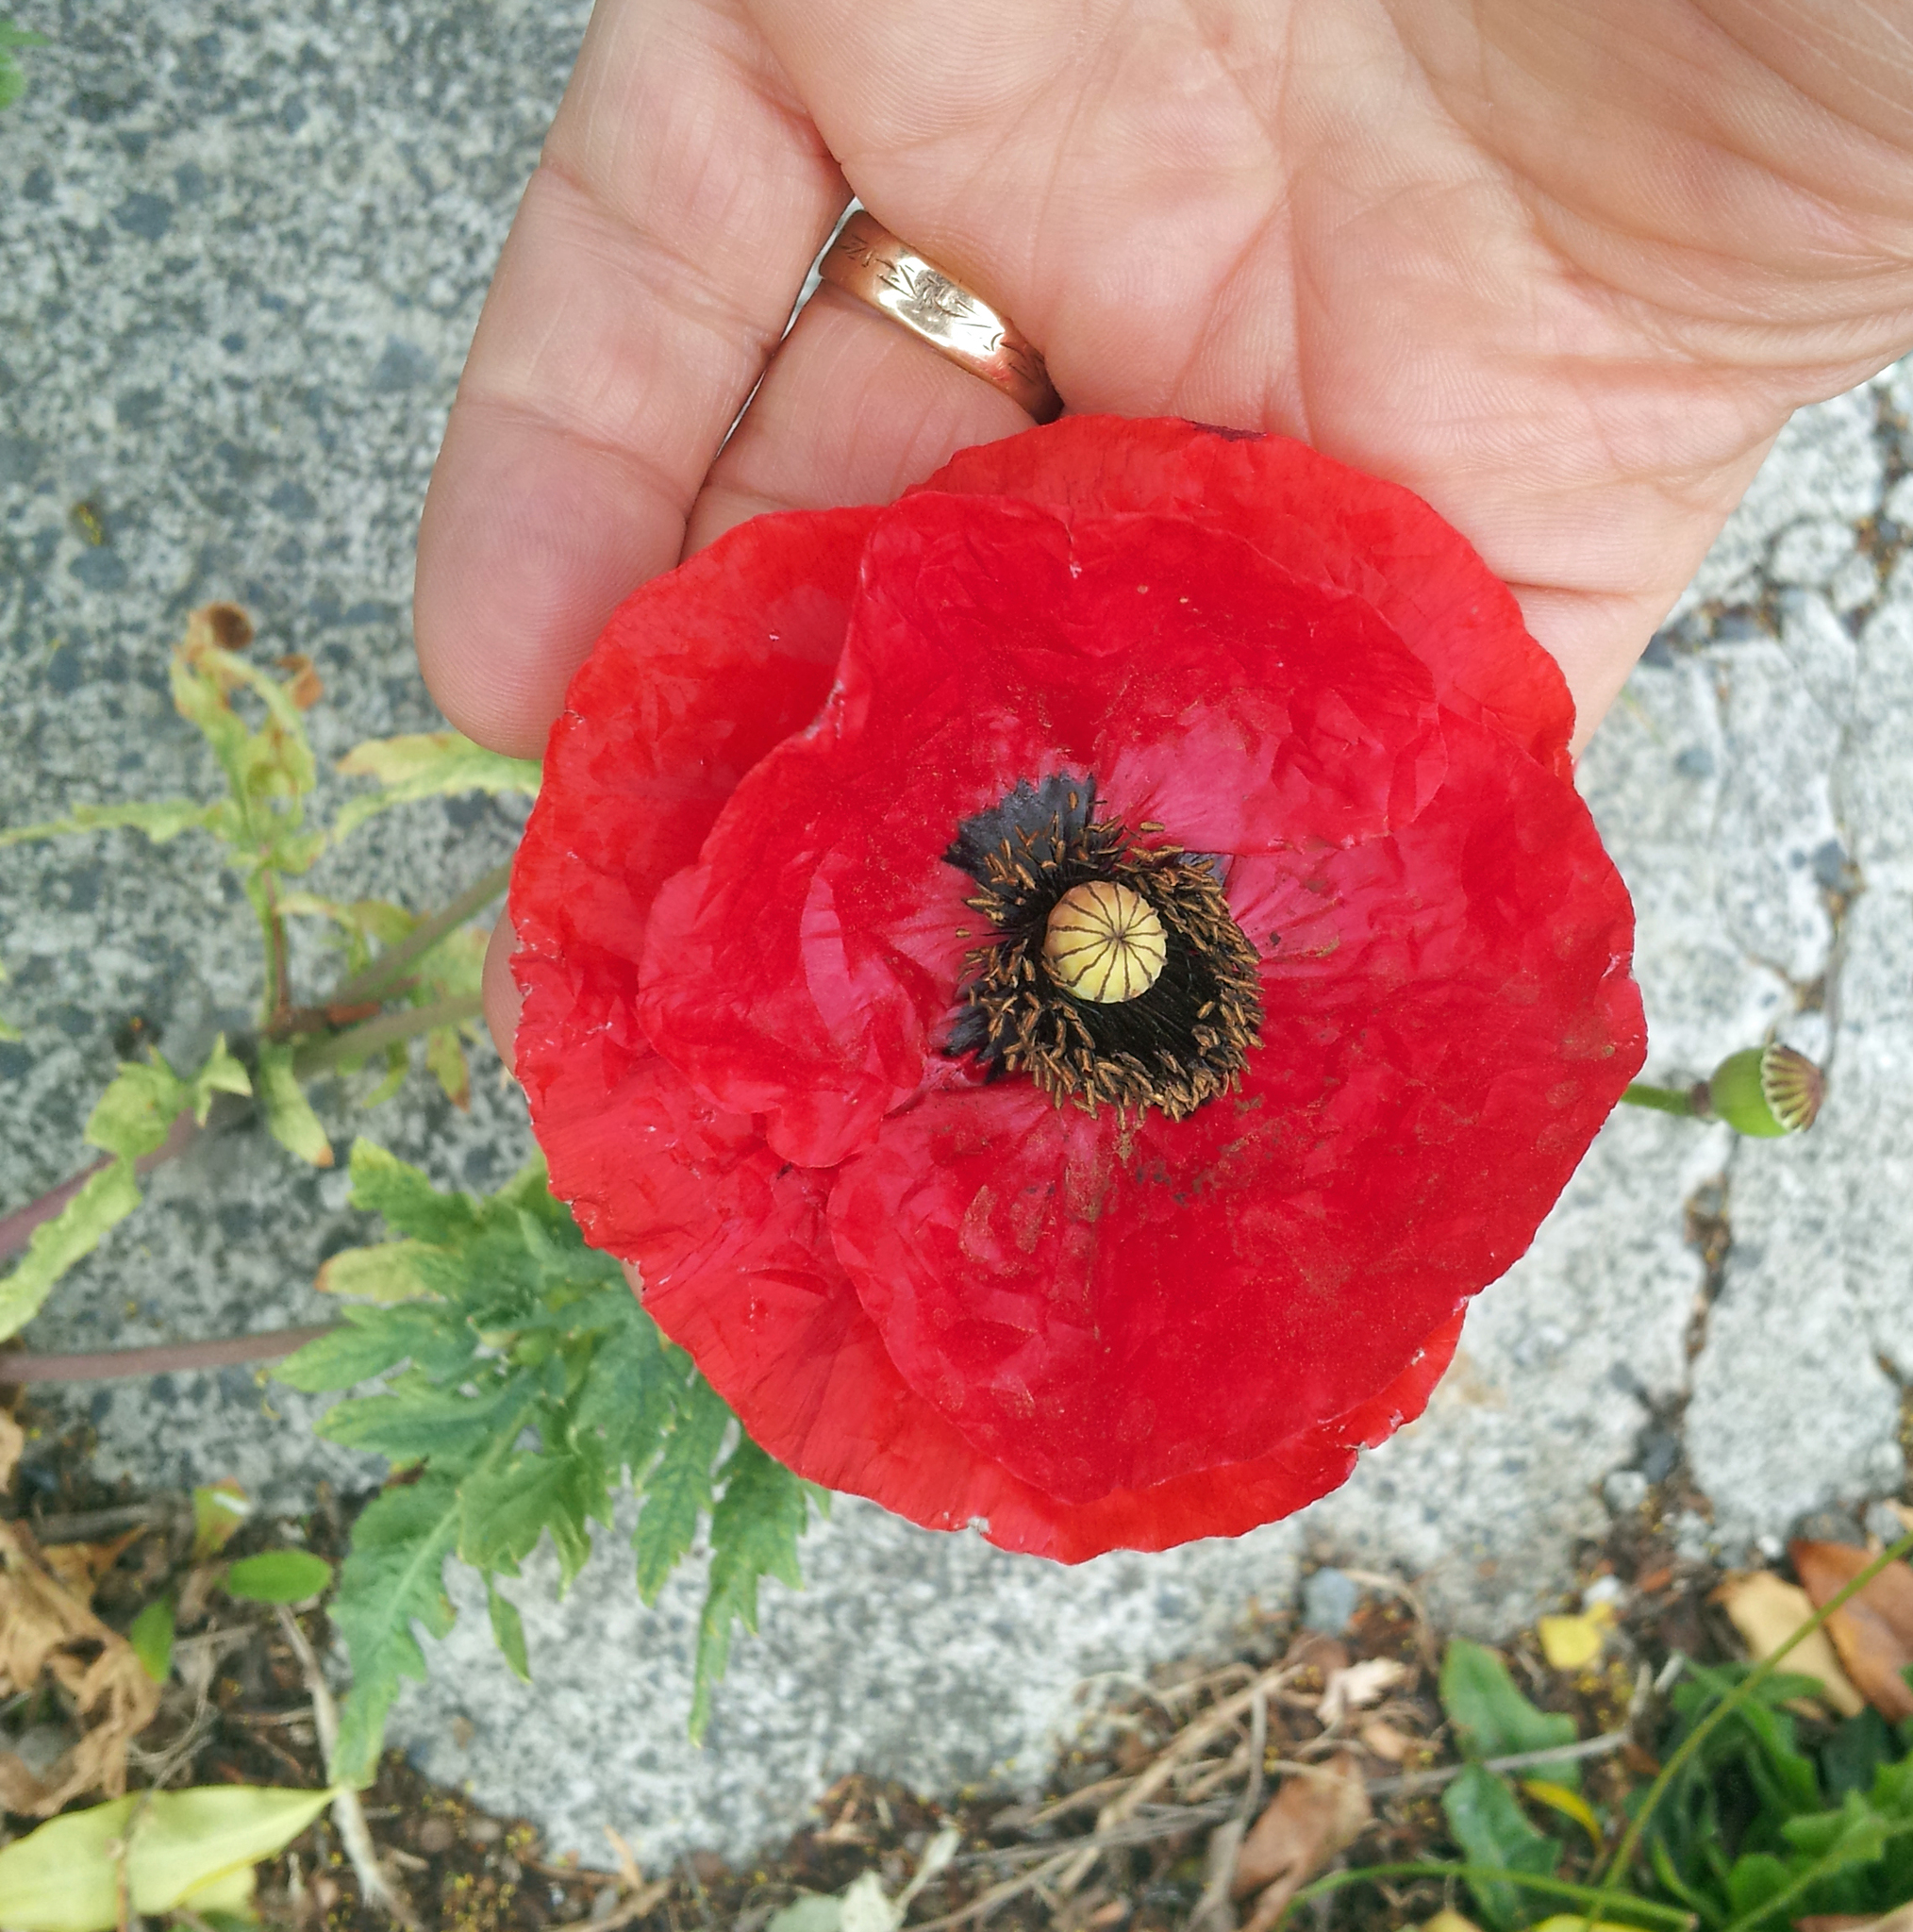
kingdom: Plantae
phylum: Tracheophyta
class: Magnoliopsida
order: Ranunculales
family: Papaveraceae
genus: Papaver
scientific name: Papaver rhoeas
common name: Corn poppy
